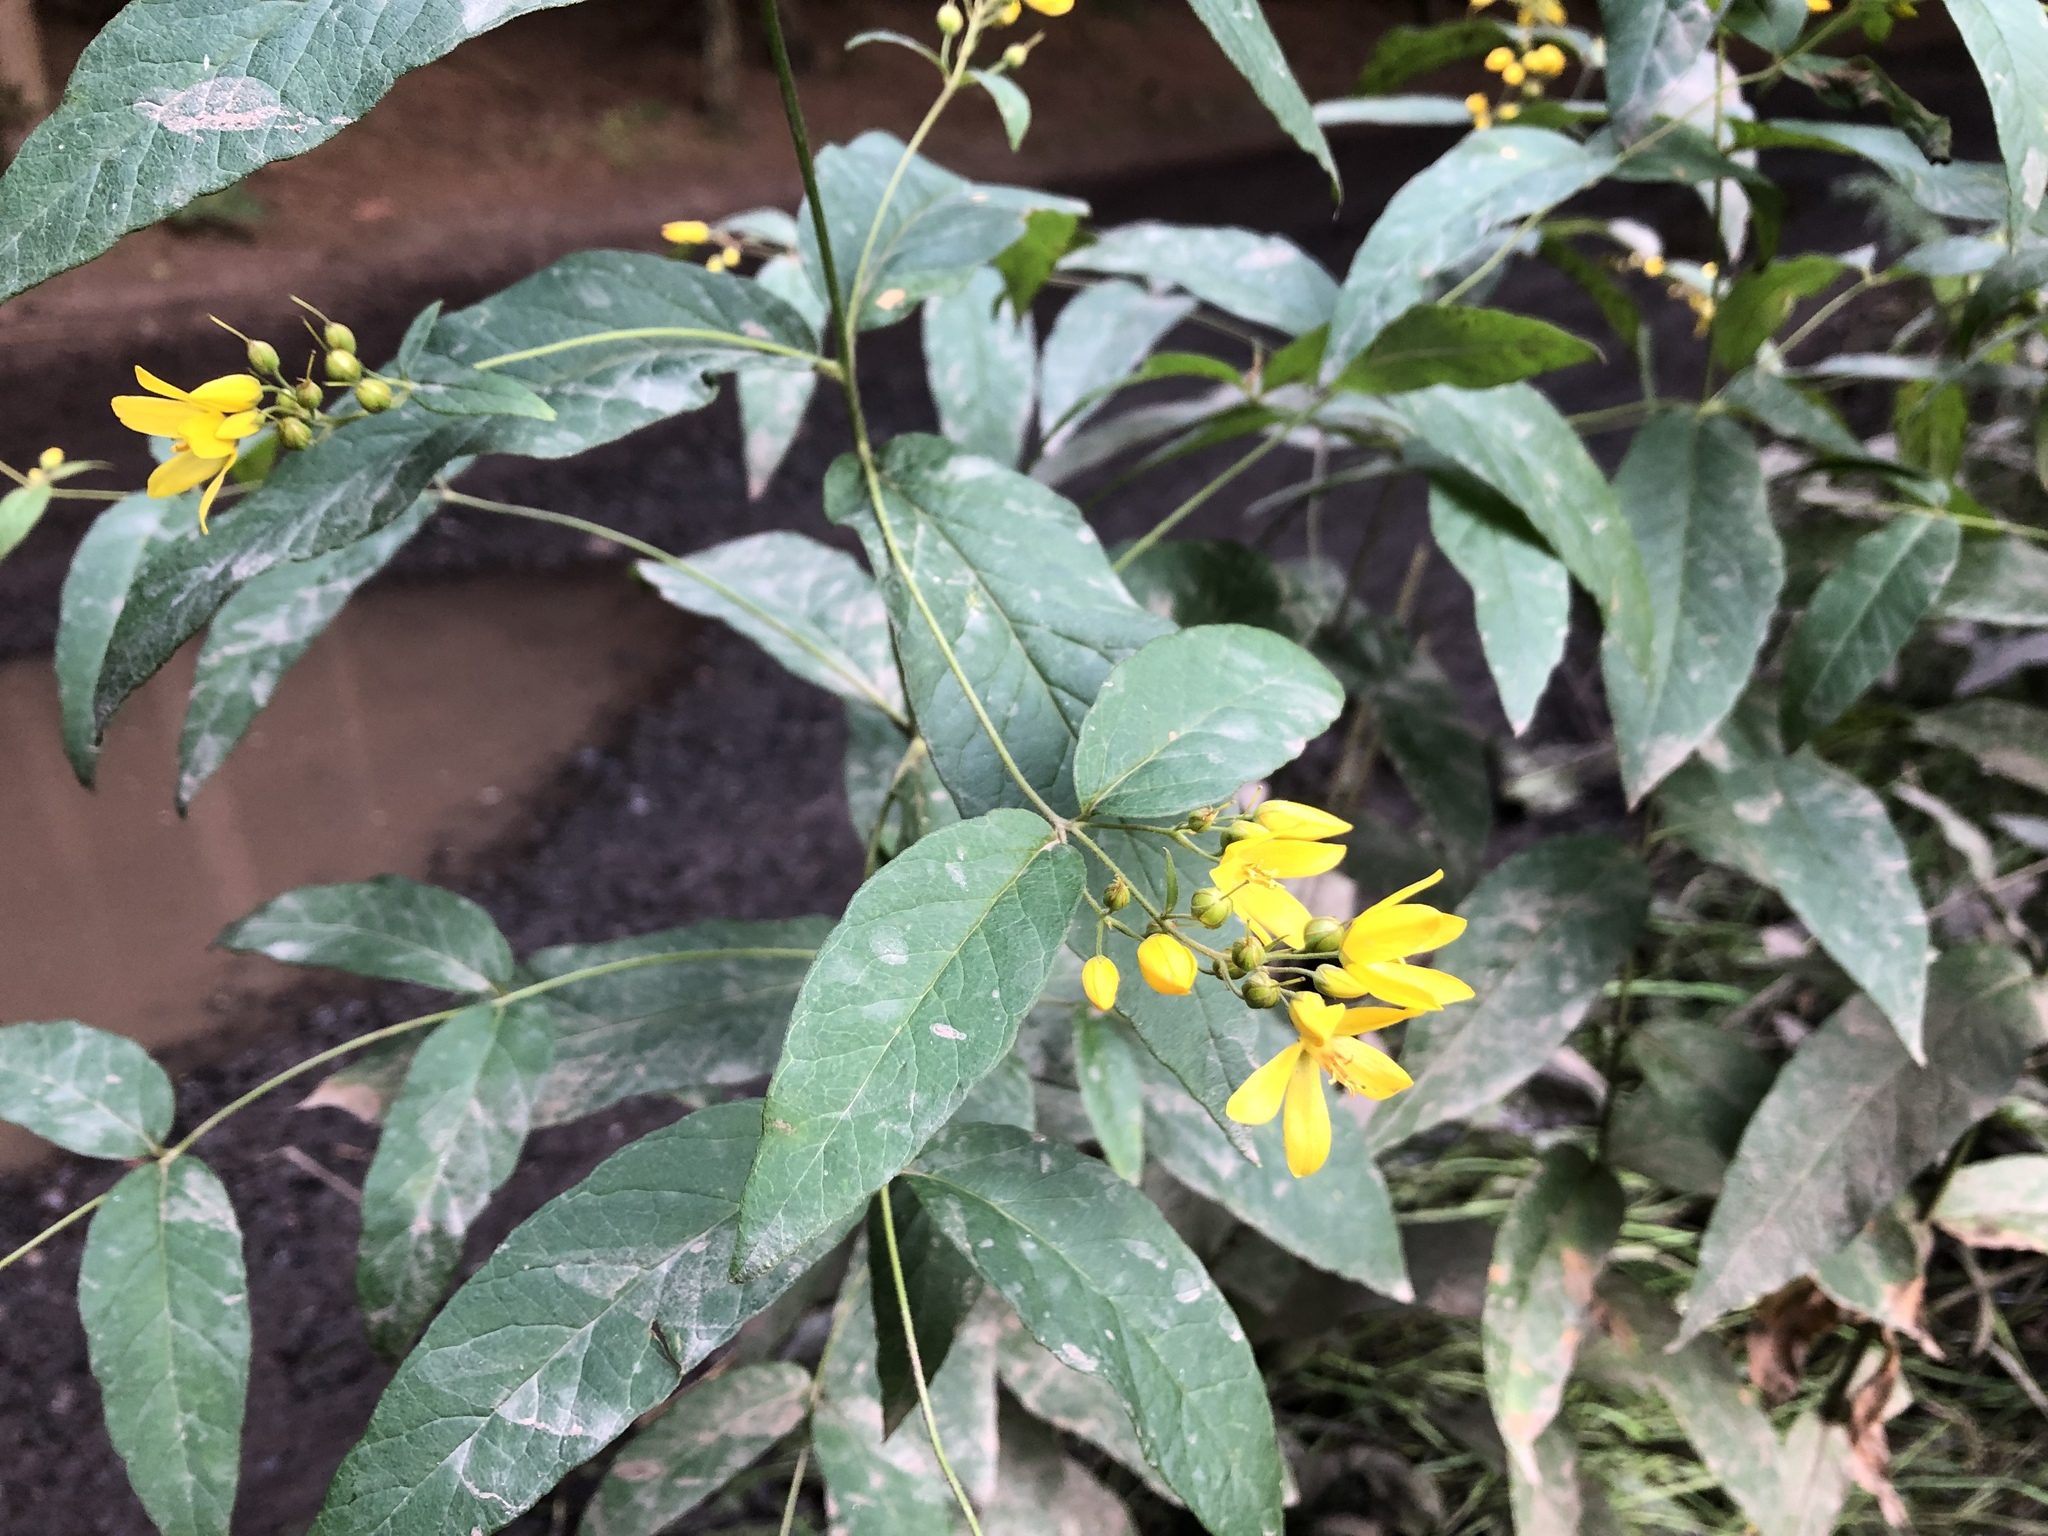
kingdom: Plantae
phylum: Tracheophyta
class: Magnoliopsida
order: Ericales
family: Primulaceae
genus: Lysimachia
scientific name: Lysimachia vulgaris
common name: Yellow loosestrife
